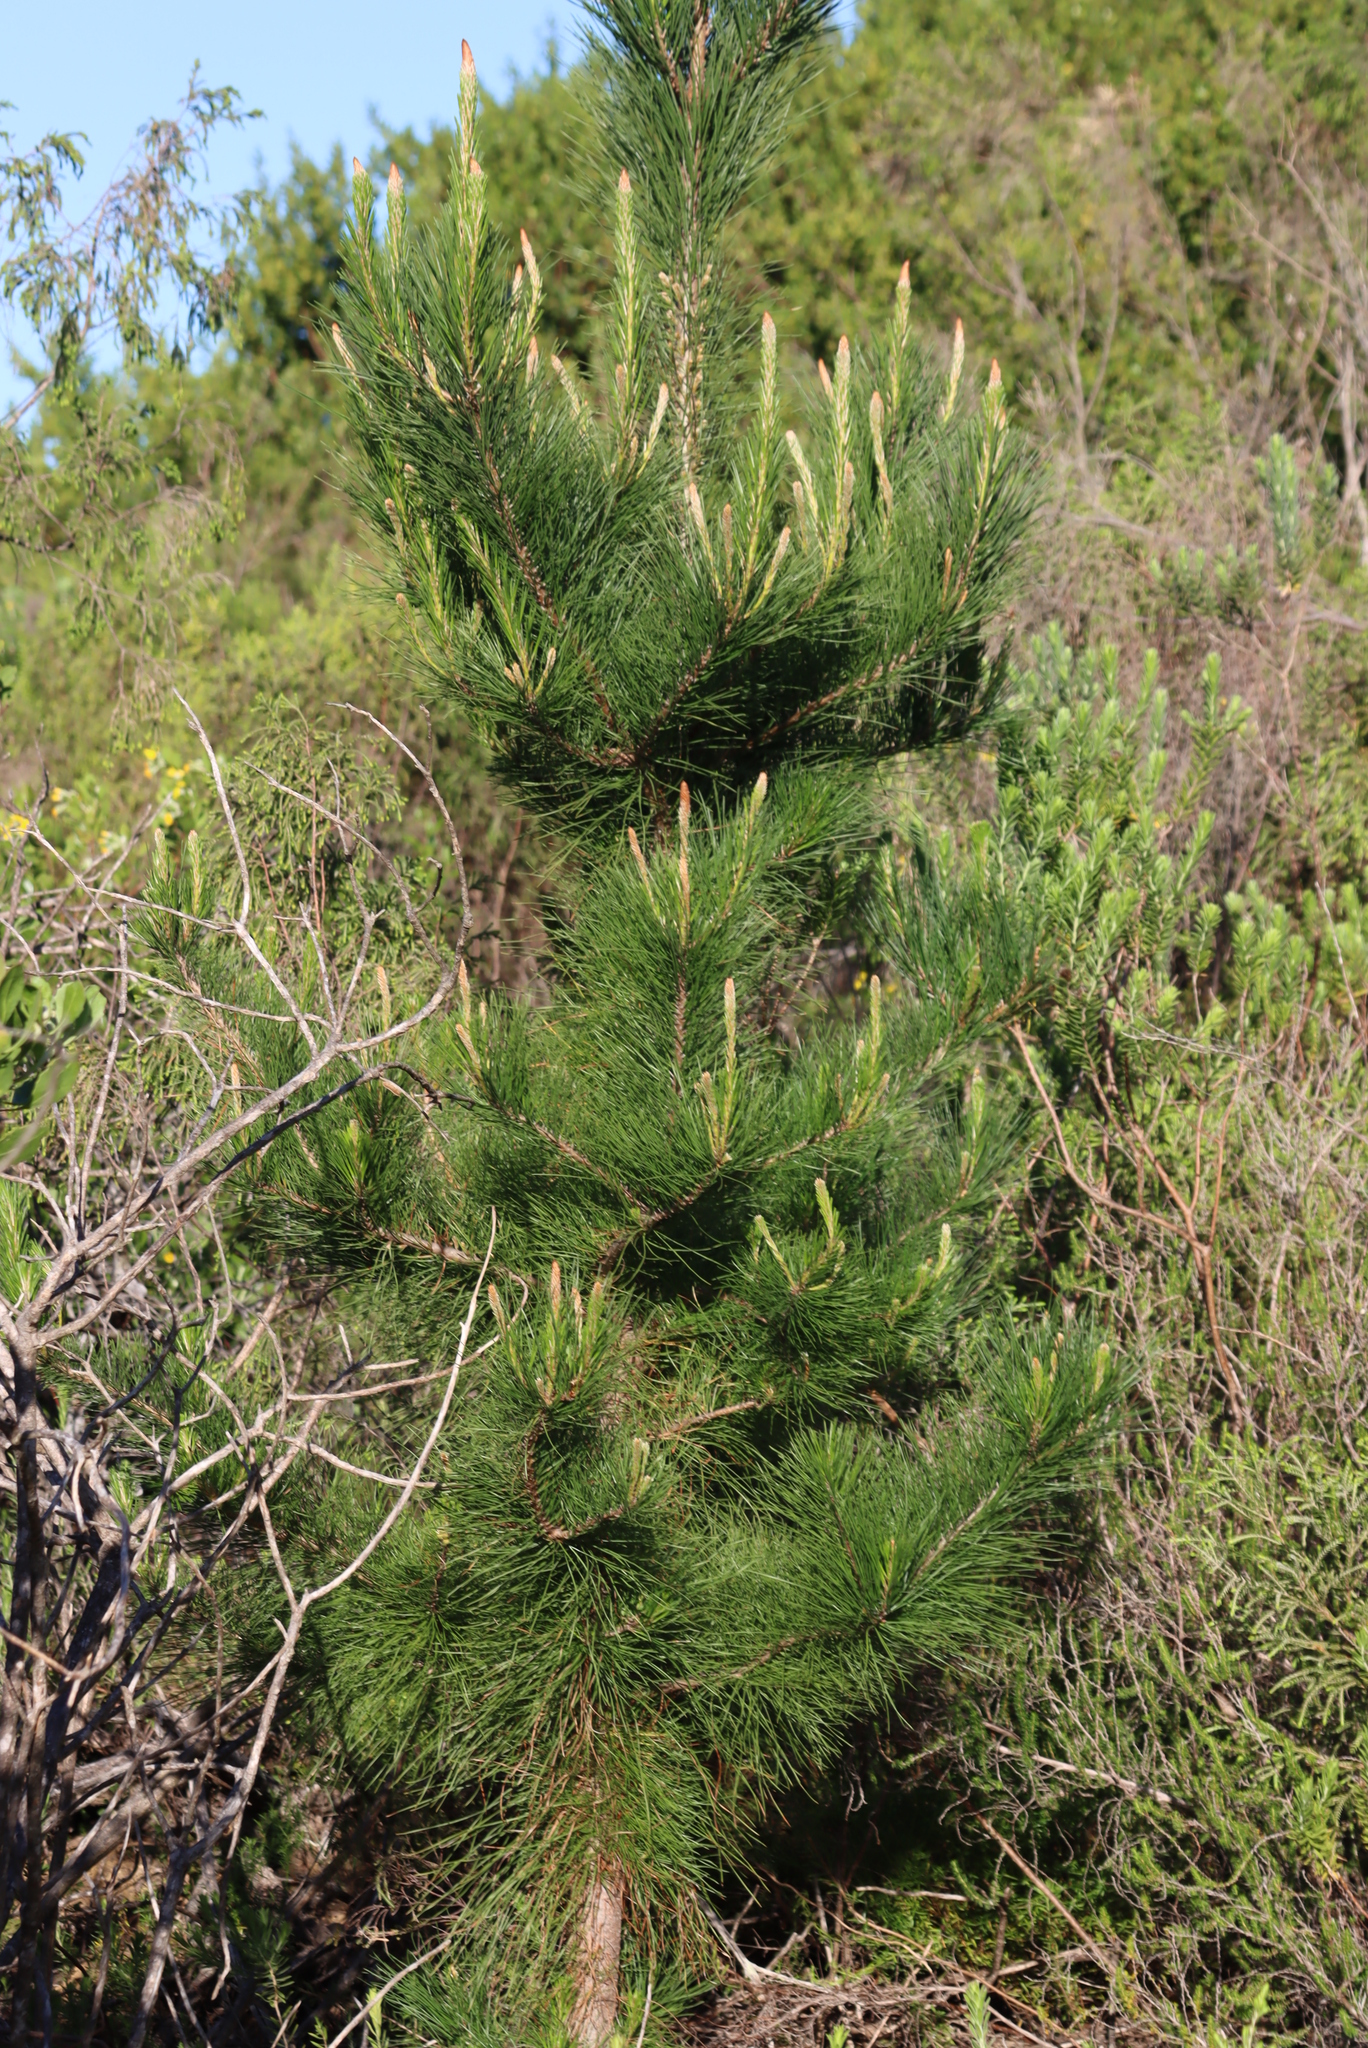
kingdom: Plantae
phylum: Tracheophyta
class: Pinopsida
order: Pinales
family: Pinaceae
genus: Pinus
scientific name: Pinus radiata
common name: Monterey pine
